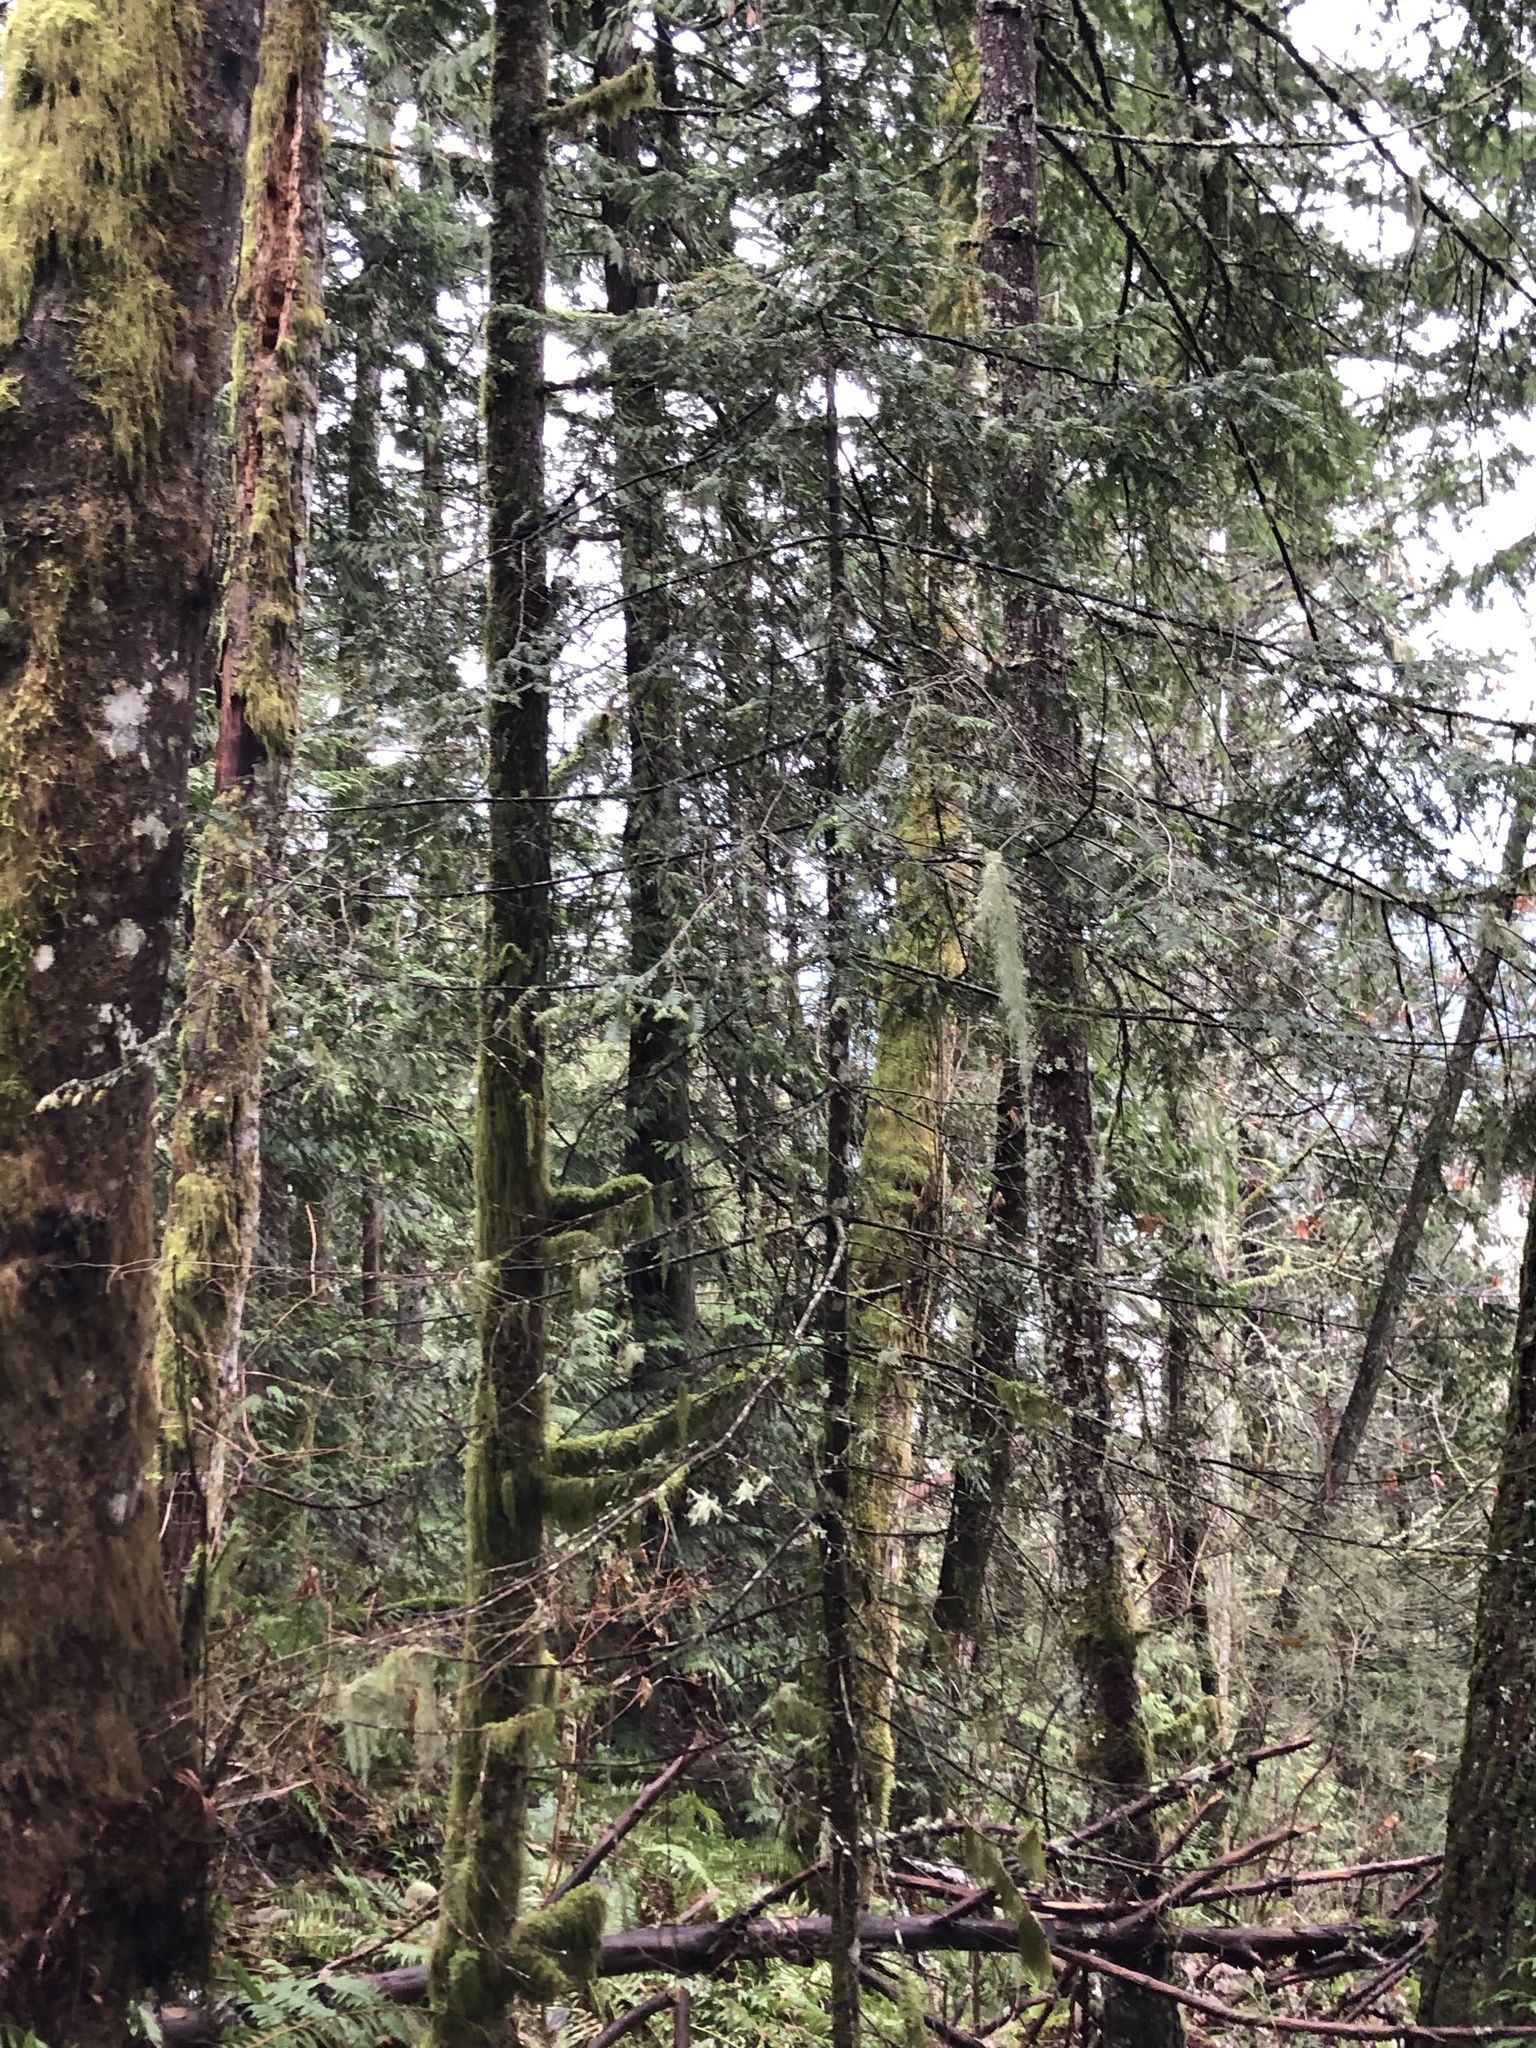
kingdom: Plantae
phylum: Tracheophyta
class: Pinopsida
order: Pinales
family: Pinaceae
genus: Abies
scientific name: Abies grandis
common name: Giant fir
